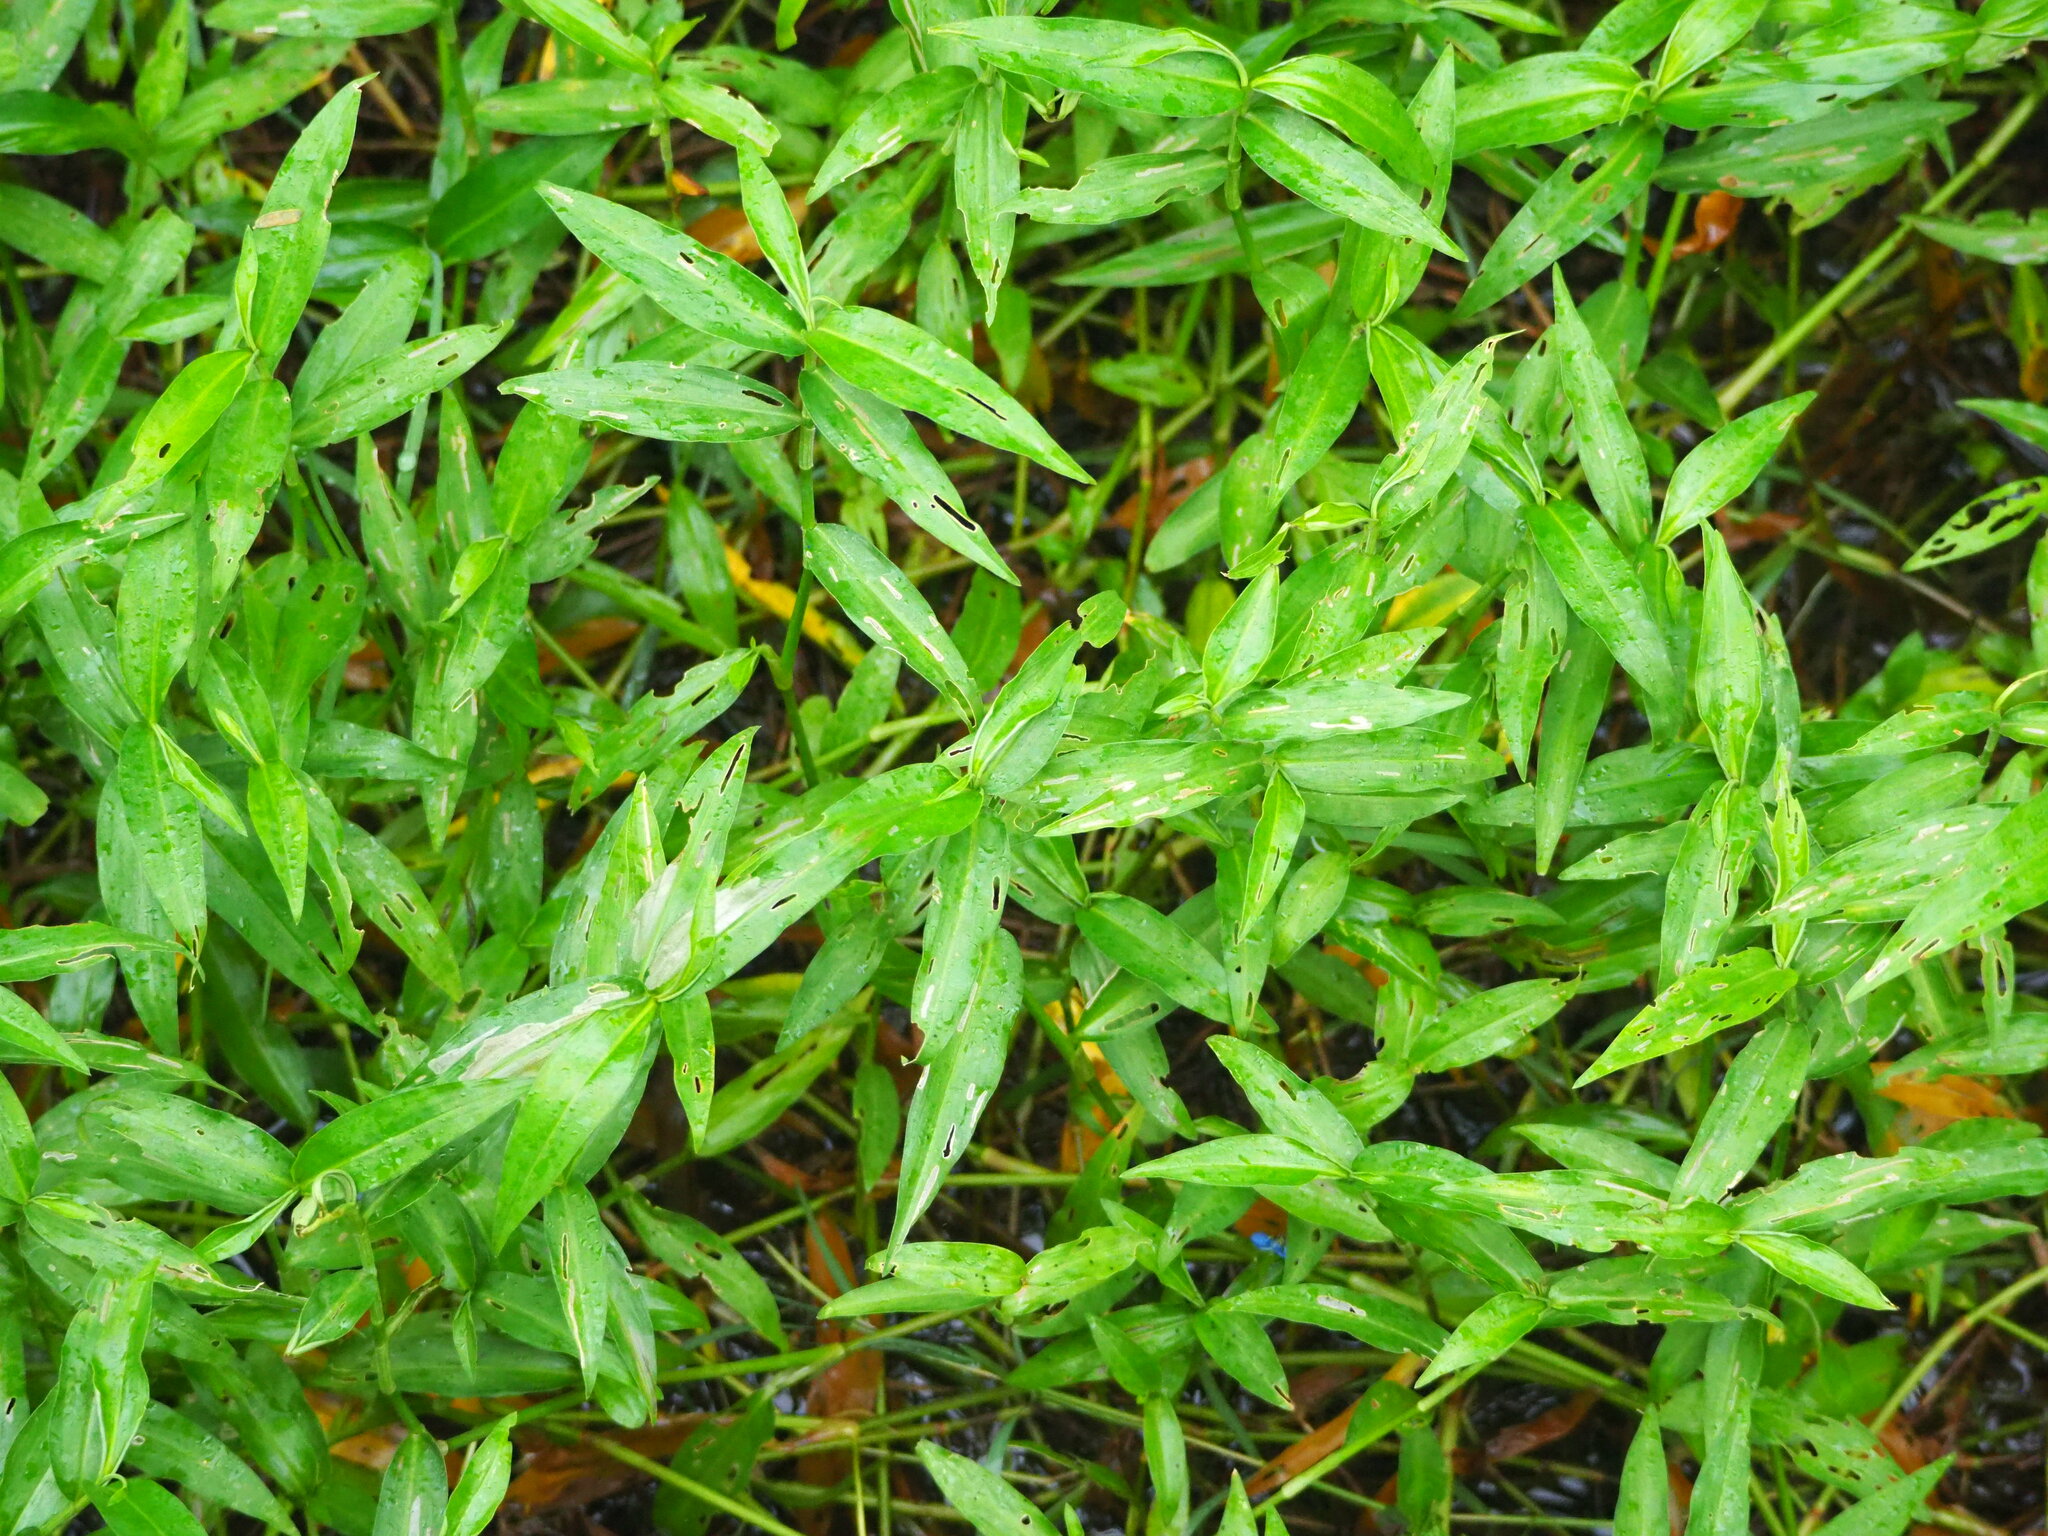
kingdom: Plantae
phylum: Tracheophyta
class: Liliopsida
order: Commelinales
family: Commelinaceae
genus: Commelina
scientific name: Commelina diffusa
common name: Climbing dayflower
